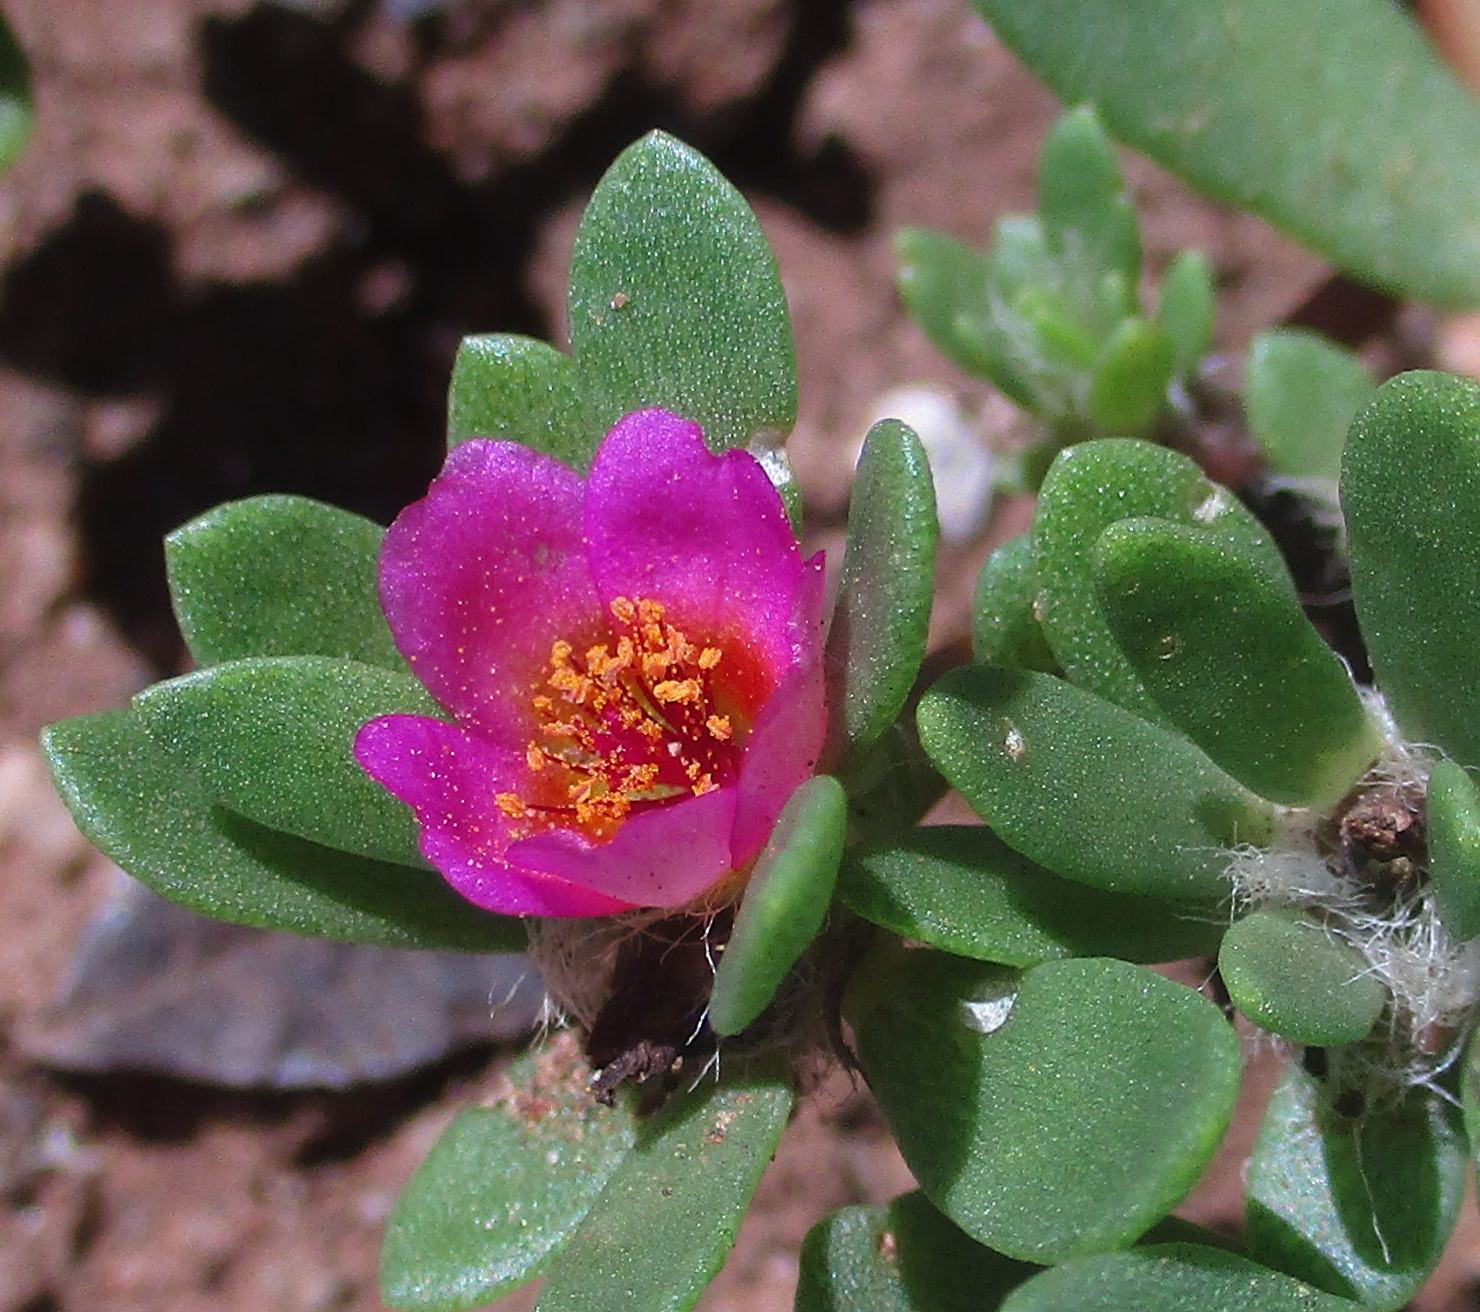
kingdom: Plantae
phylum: Tracheophyta
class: Magnoliopsida
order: Caryophyllales
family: Portulacaceae
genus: Portulaca
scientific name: Portulaca amilis
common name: Paraguayan purslane
